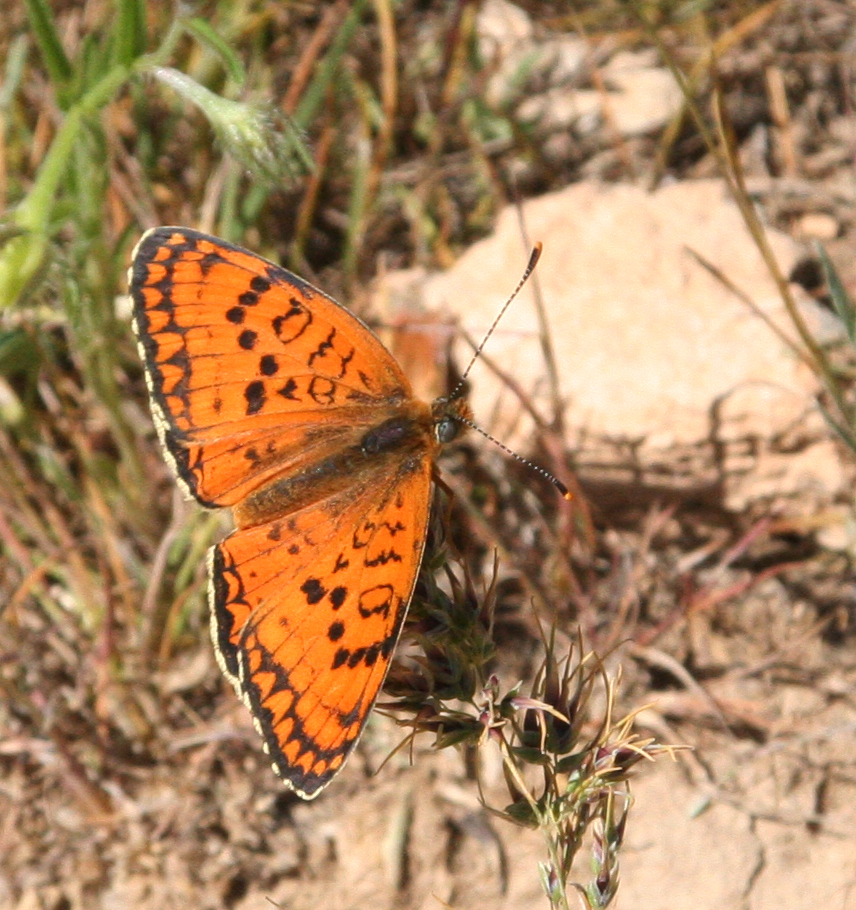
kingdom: Animalia
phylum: Arthropoda
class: Insecta
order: Lepidoptera
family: Nymphalidae
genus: Melitaea
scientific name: Melitaea arduinna
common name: Freyer's fritillary
